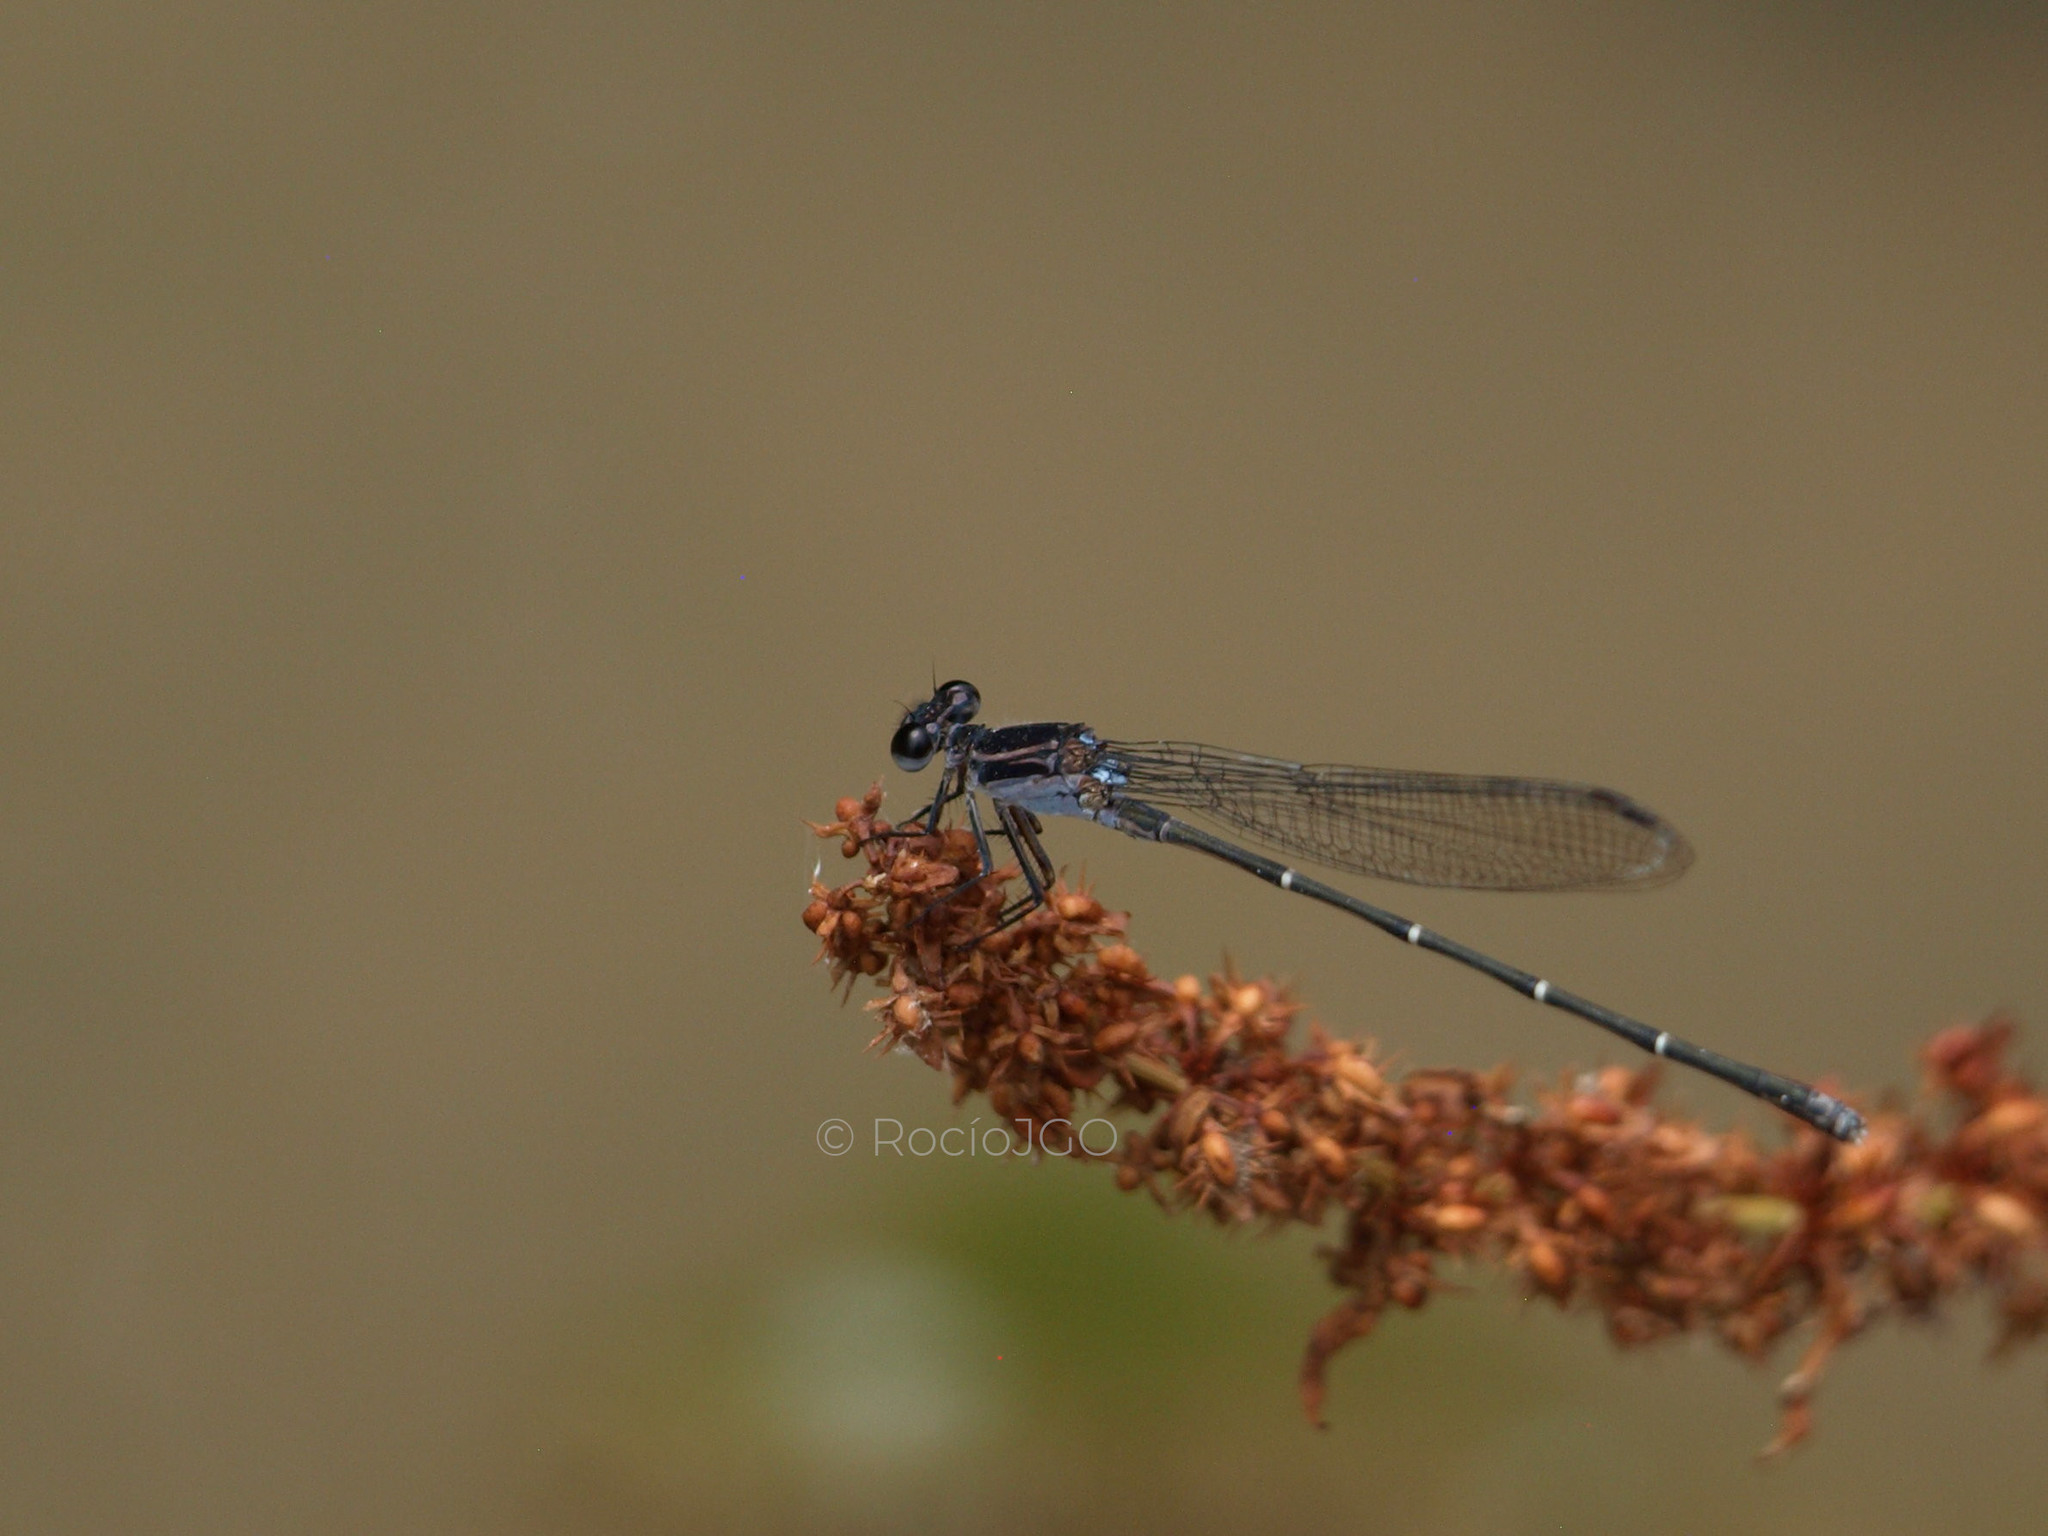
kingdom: Animalia
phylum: Arthropoda
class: Insecta
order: Odonata
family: Coenagrionidae
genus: Argia
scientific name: Argia tezpi
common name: Tezpi dancer
